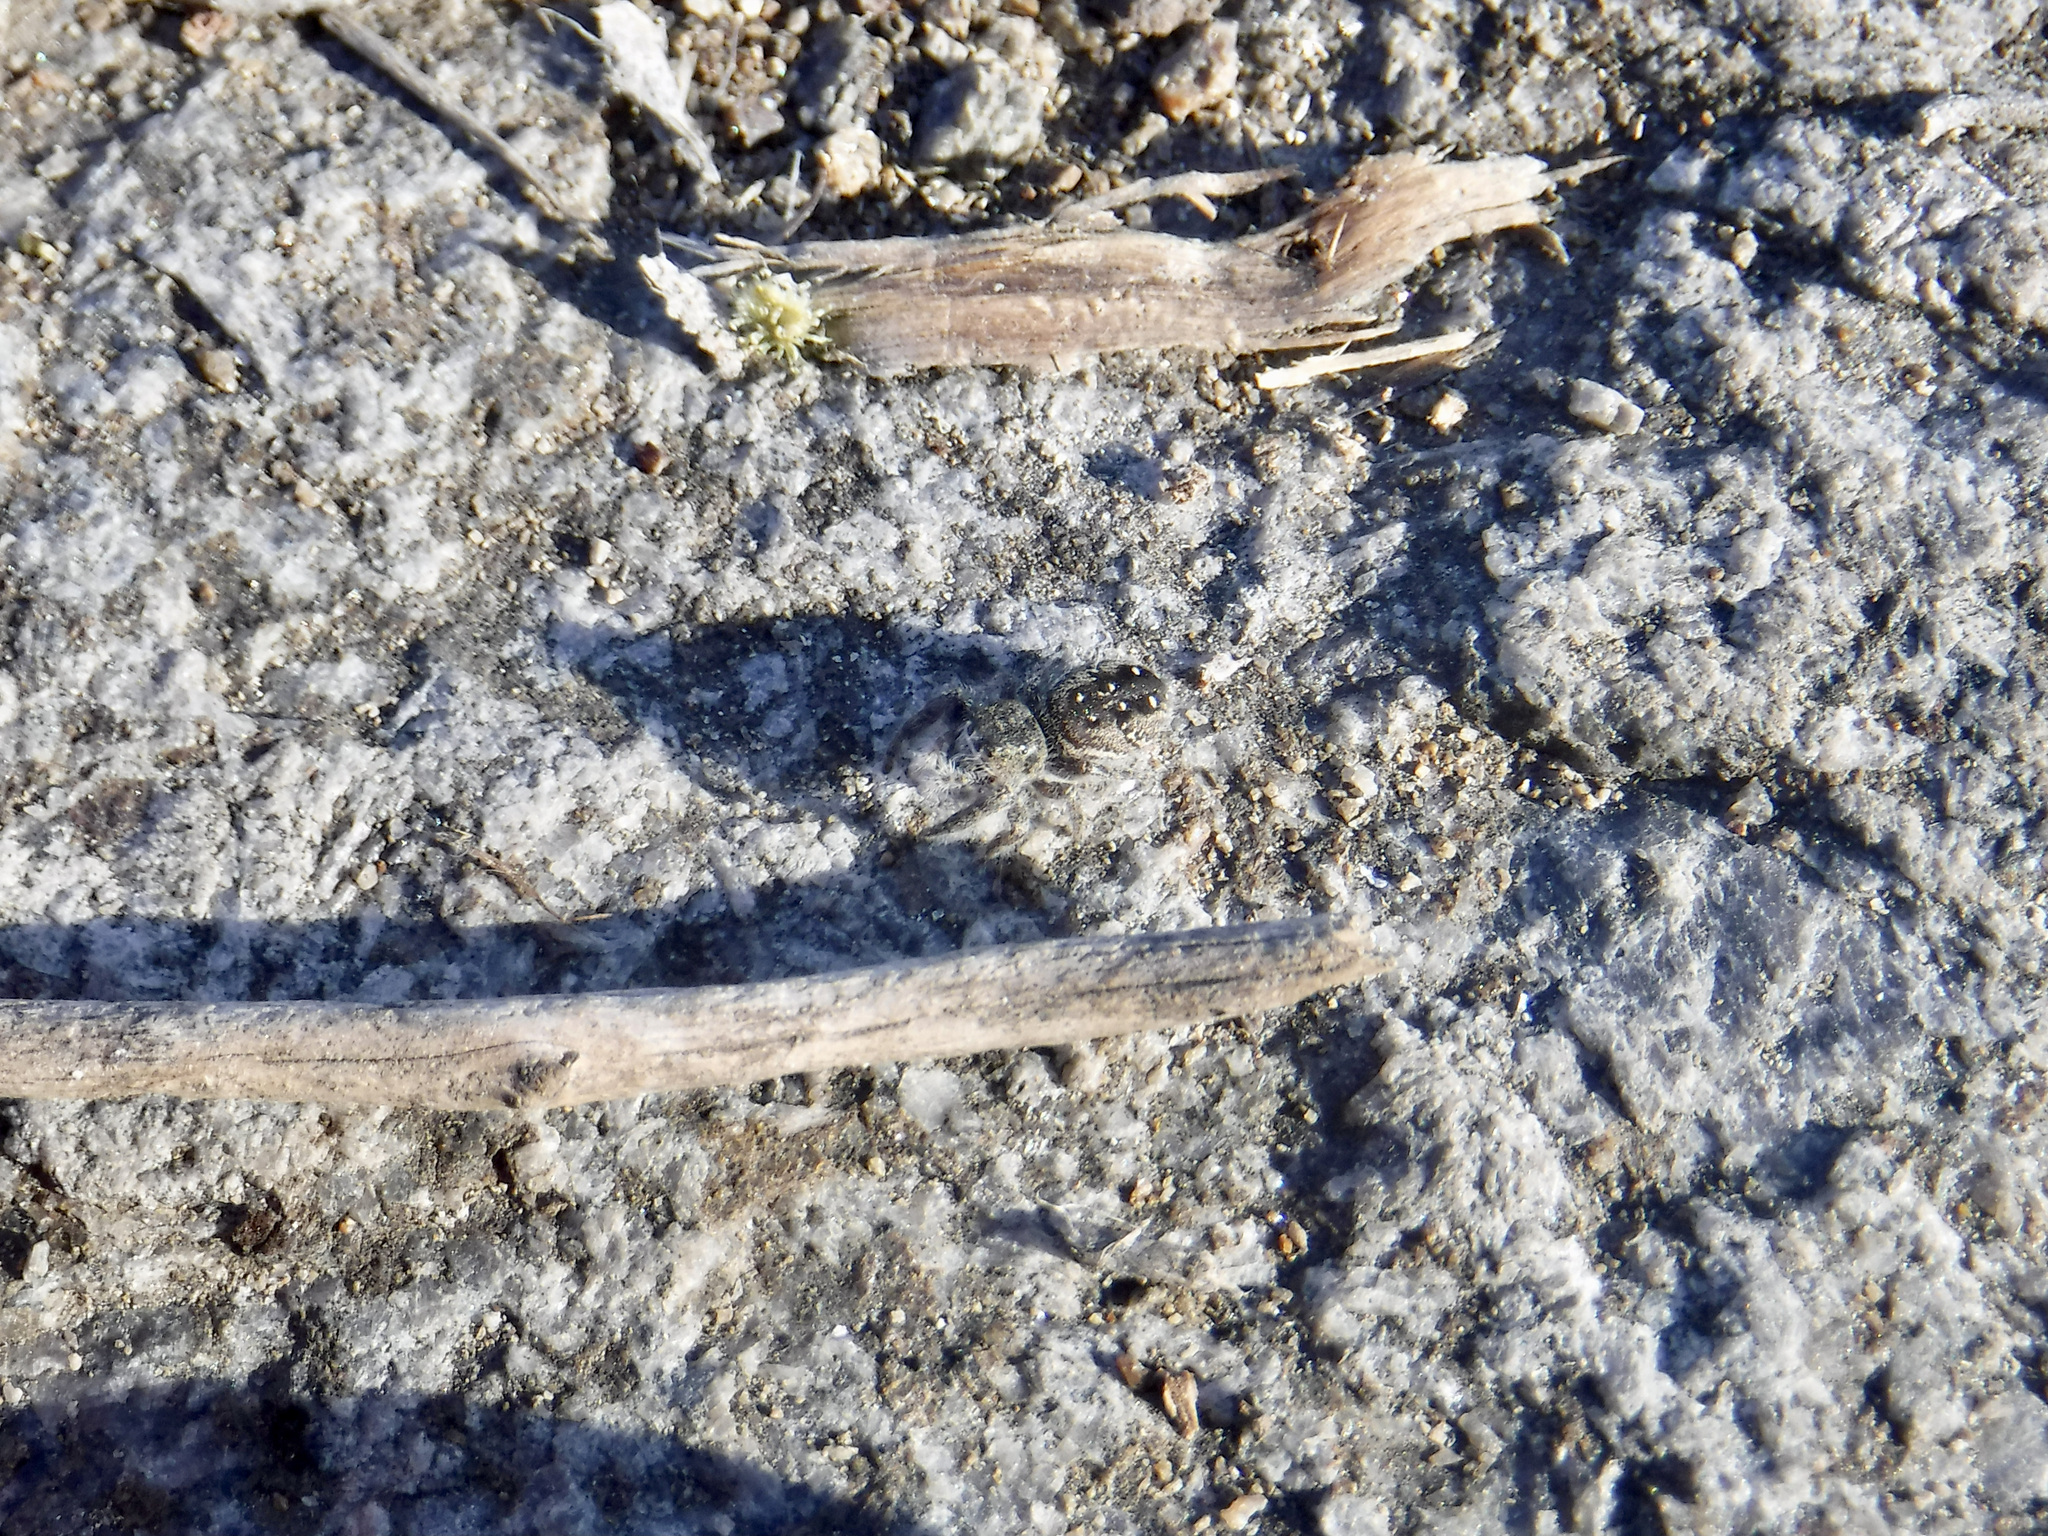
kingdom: Animalia
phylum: Arthropoda
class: Arachnida
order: Araneae
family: Salticidae
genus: Phidippus
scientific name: Phidippus purpuratus
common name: Marbled purple jumping spider
